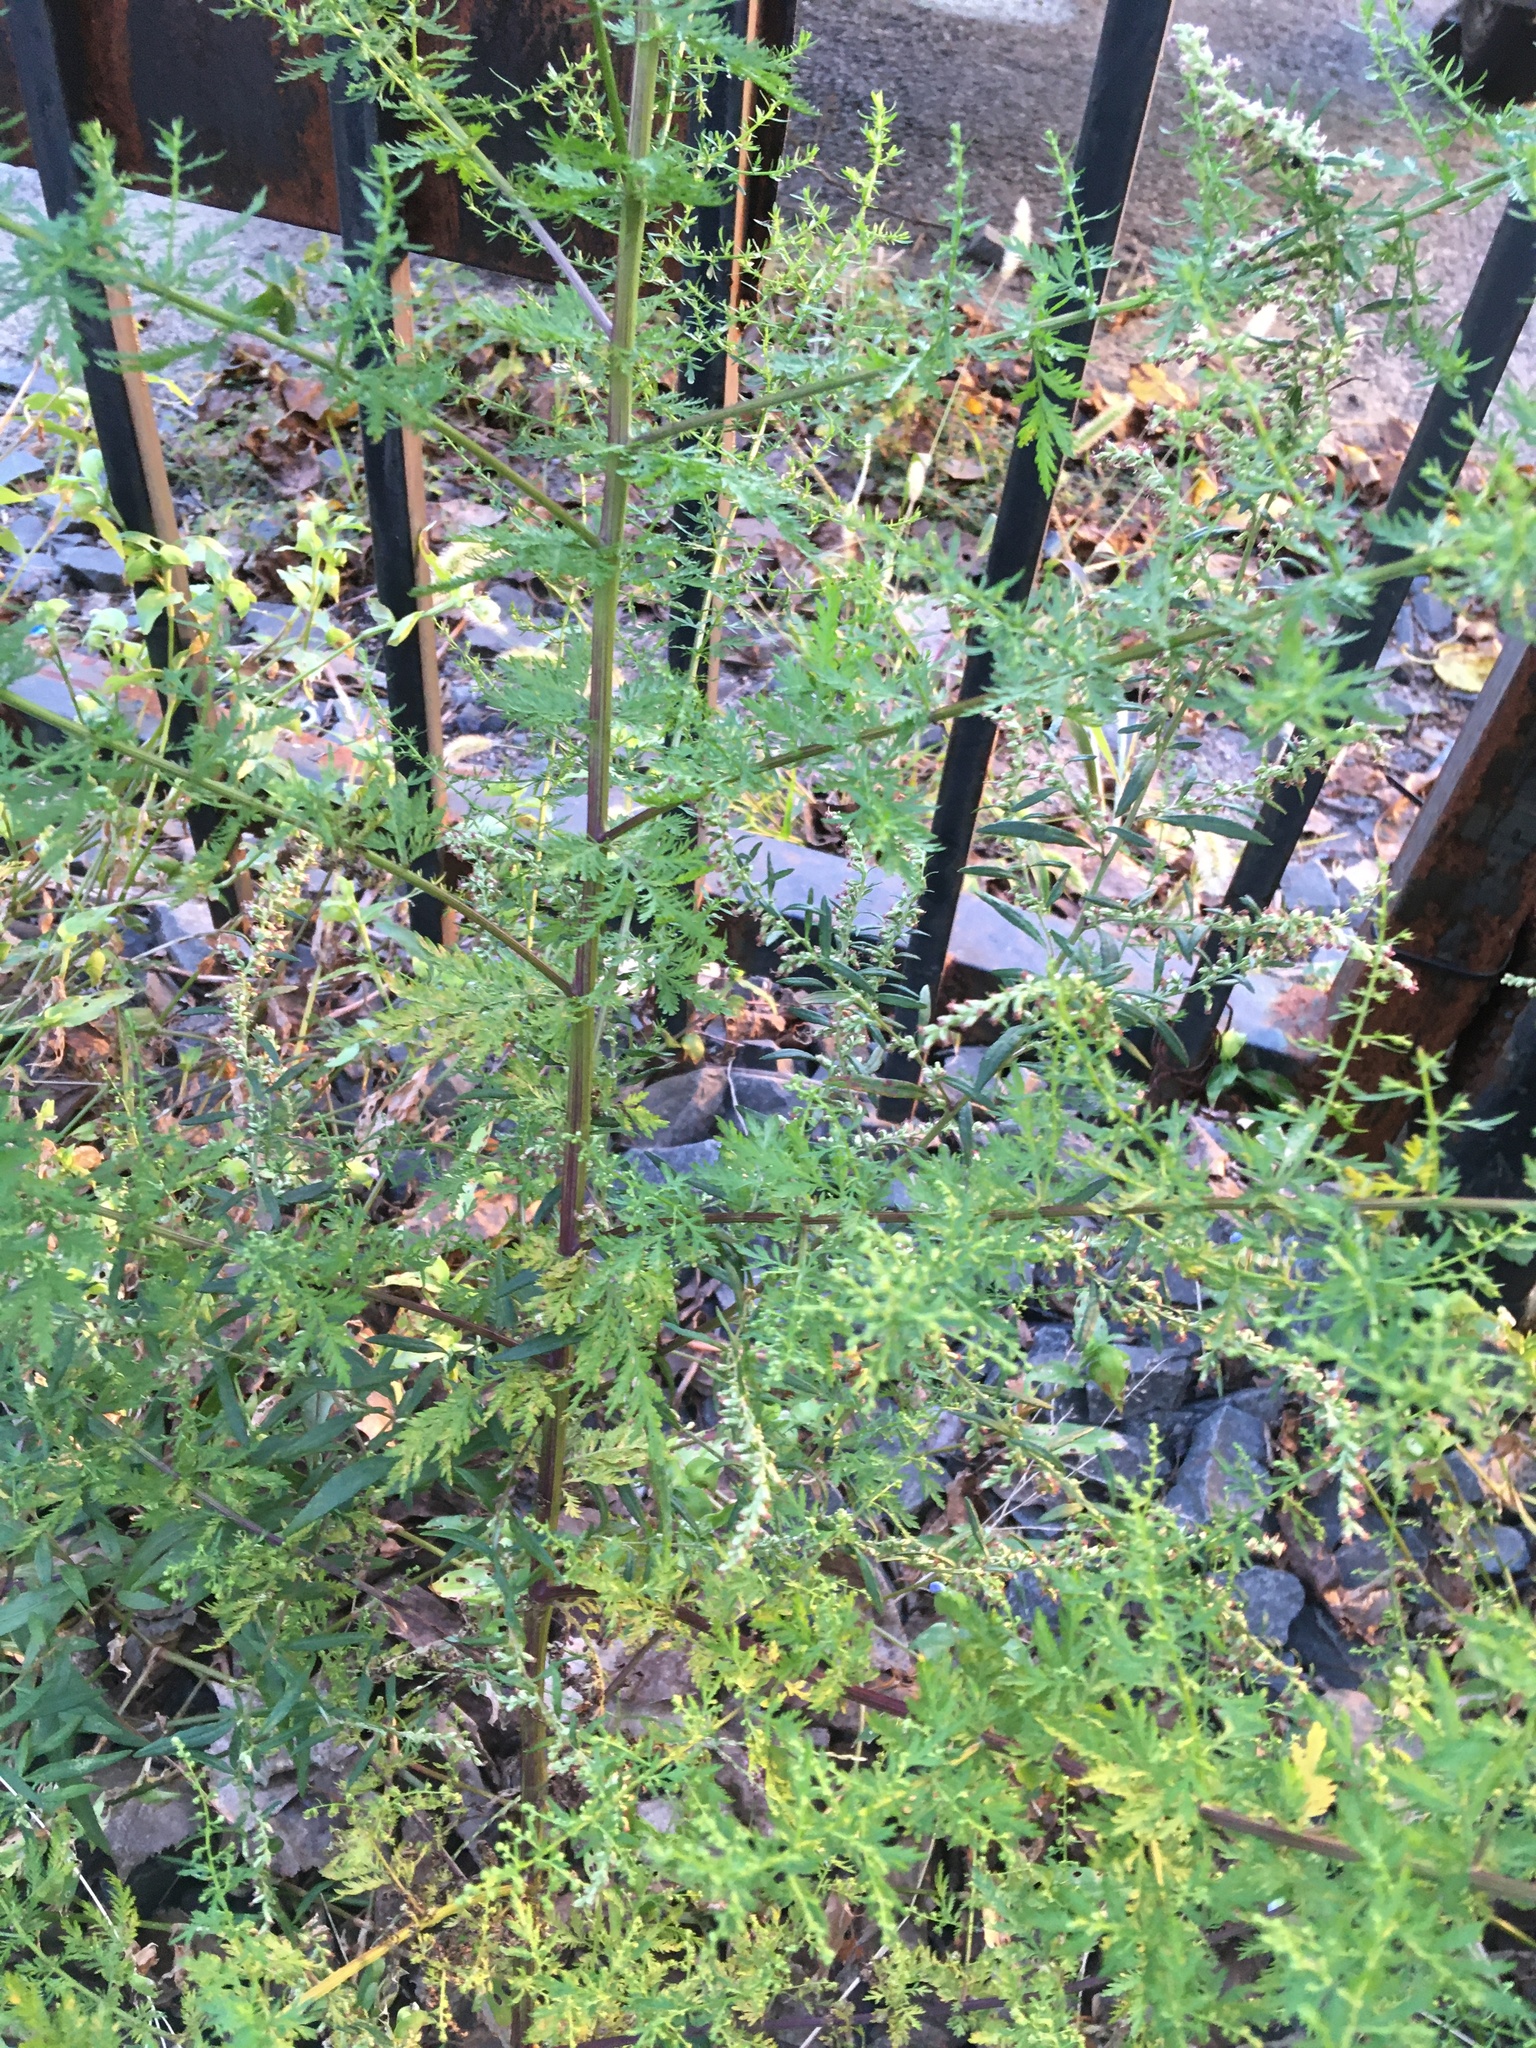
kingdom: Plantae
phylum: Tracheophyta
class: Magnoliopsida
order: Asterales
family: Asteraceae
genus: Artemisia
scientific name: Artemisia annua
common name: Sweet sagewort
